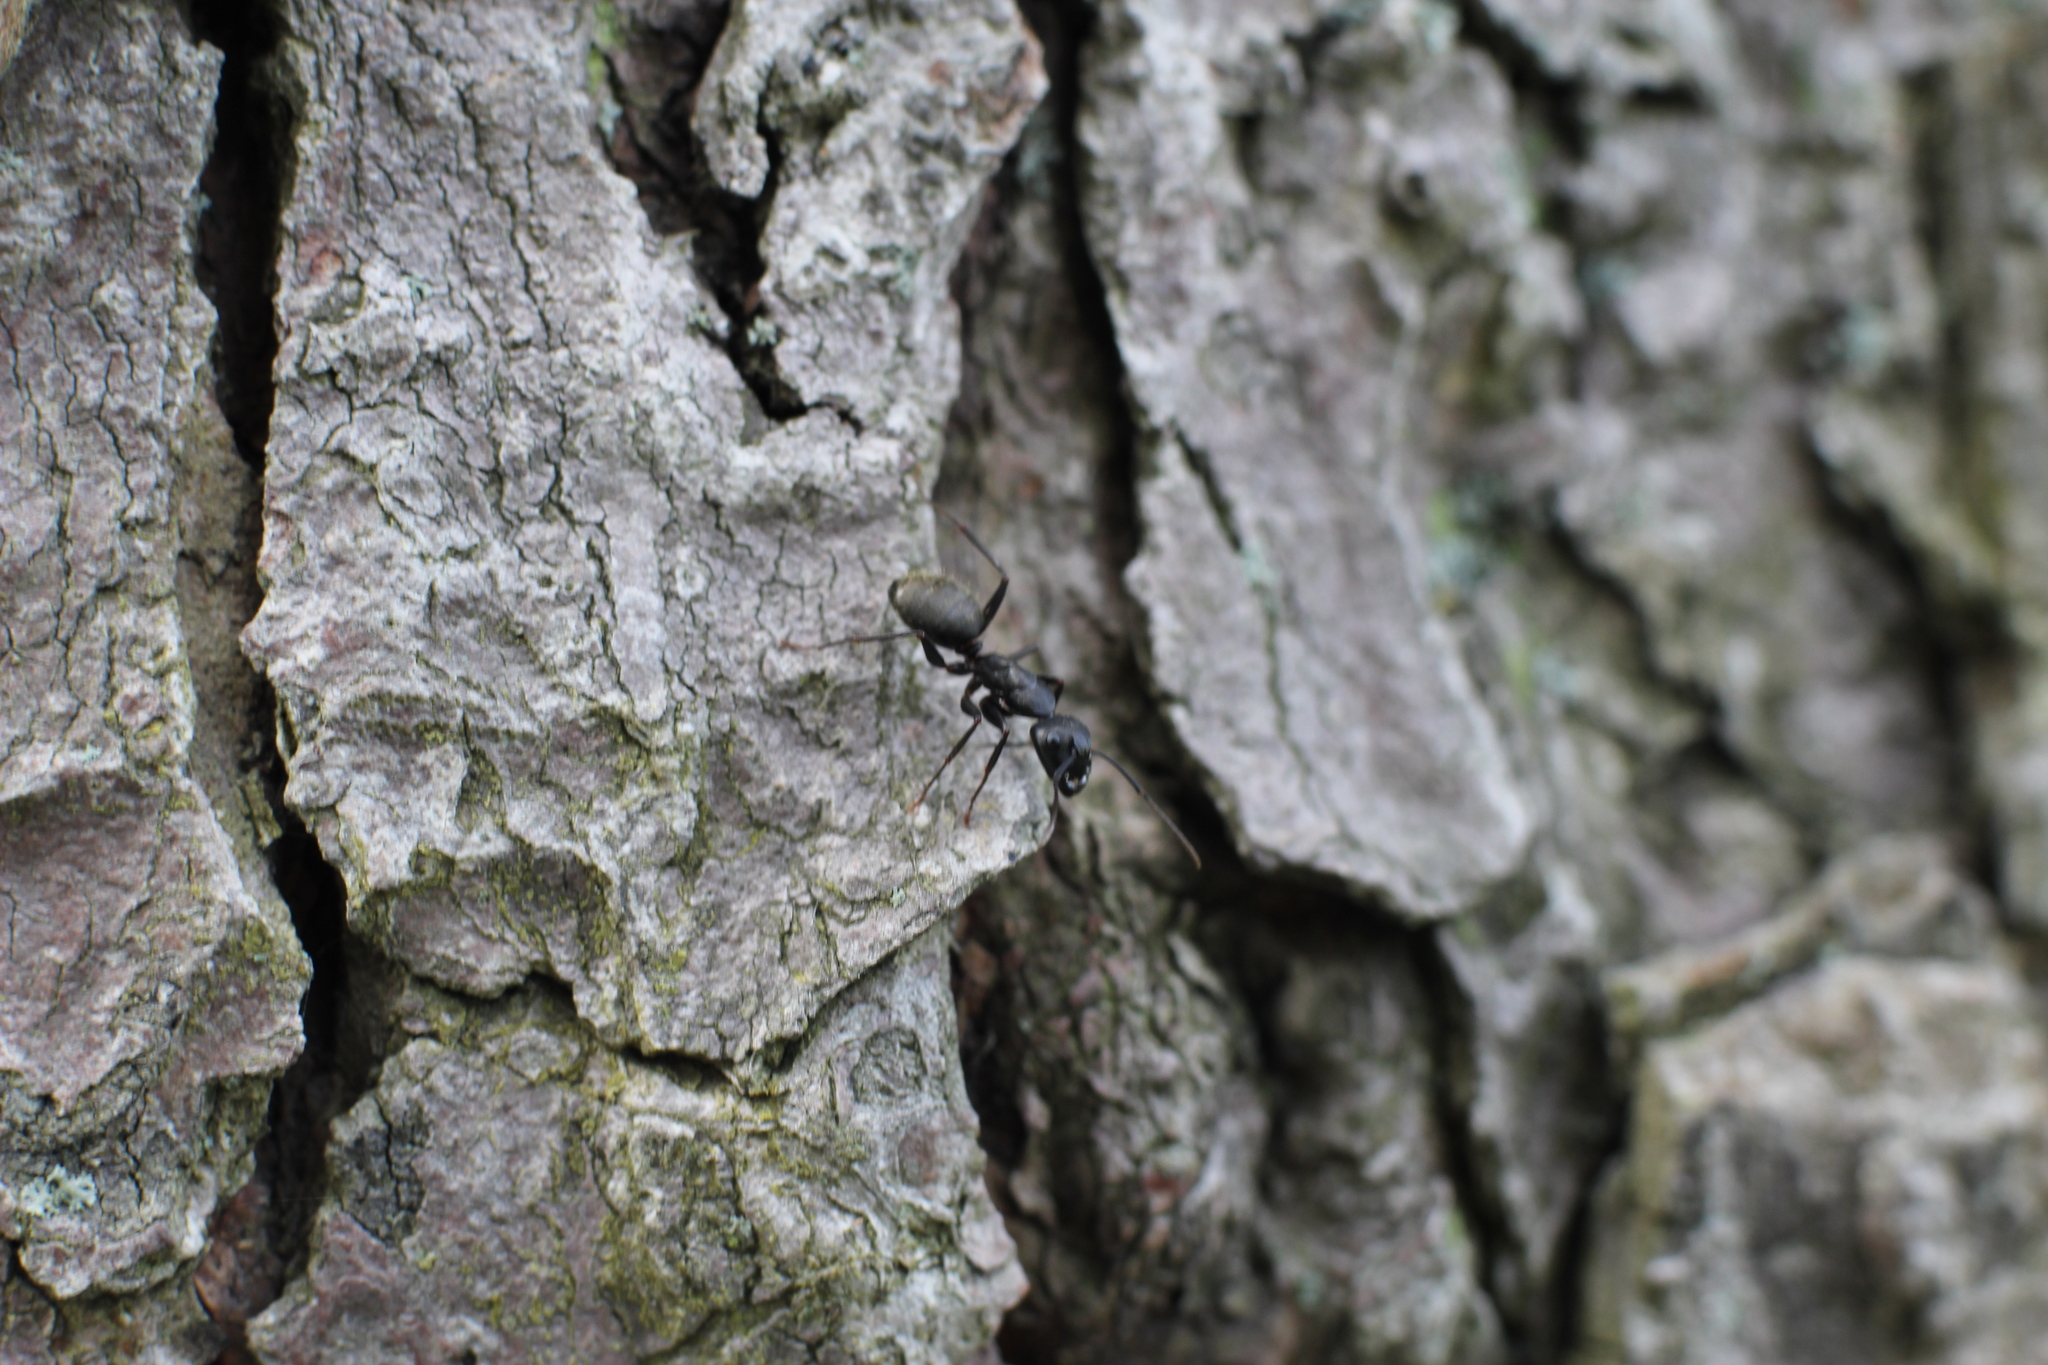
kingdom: Animalia
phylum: Arthropoda
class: Insecta
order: Hymenoptera
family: Formicidae
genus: Camponotus
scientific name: Camponotus pennsylvanicus
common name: Black carpenter ant
